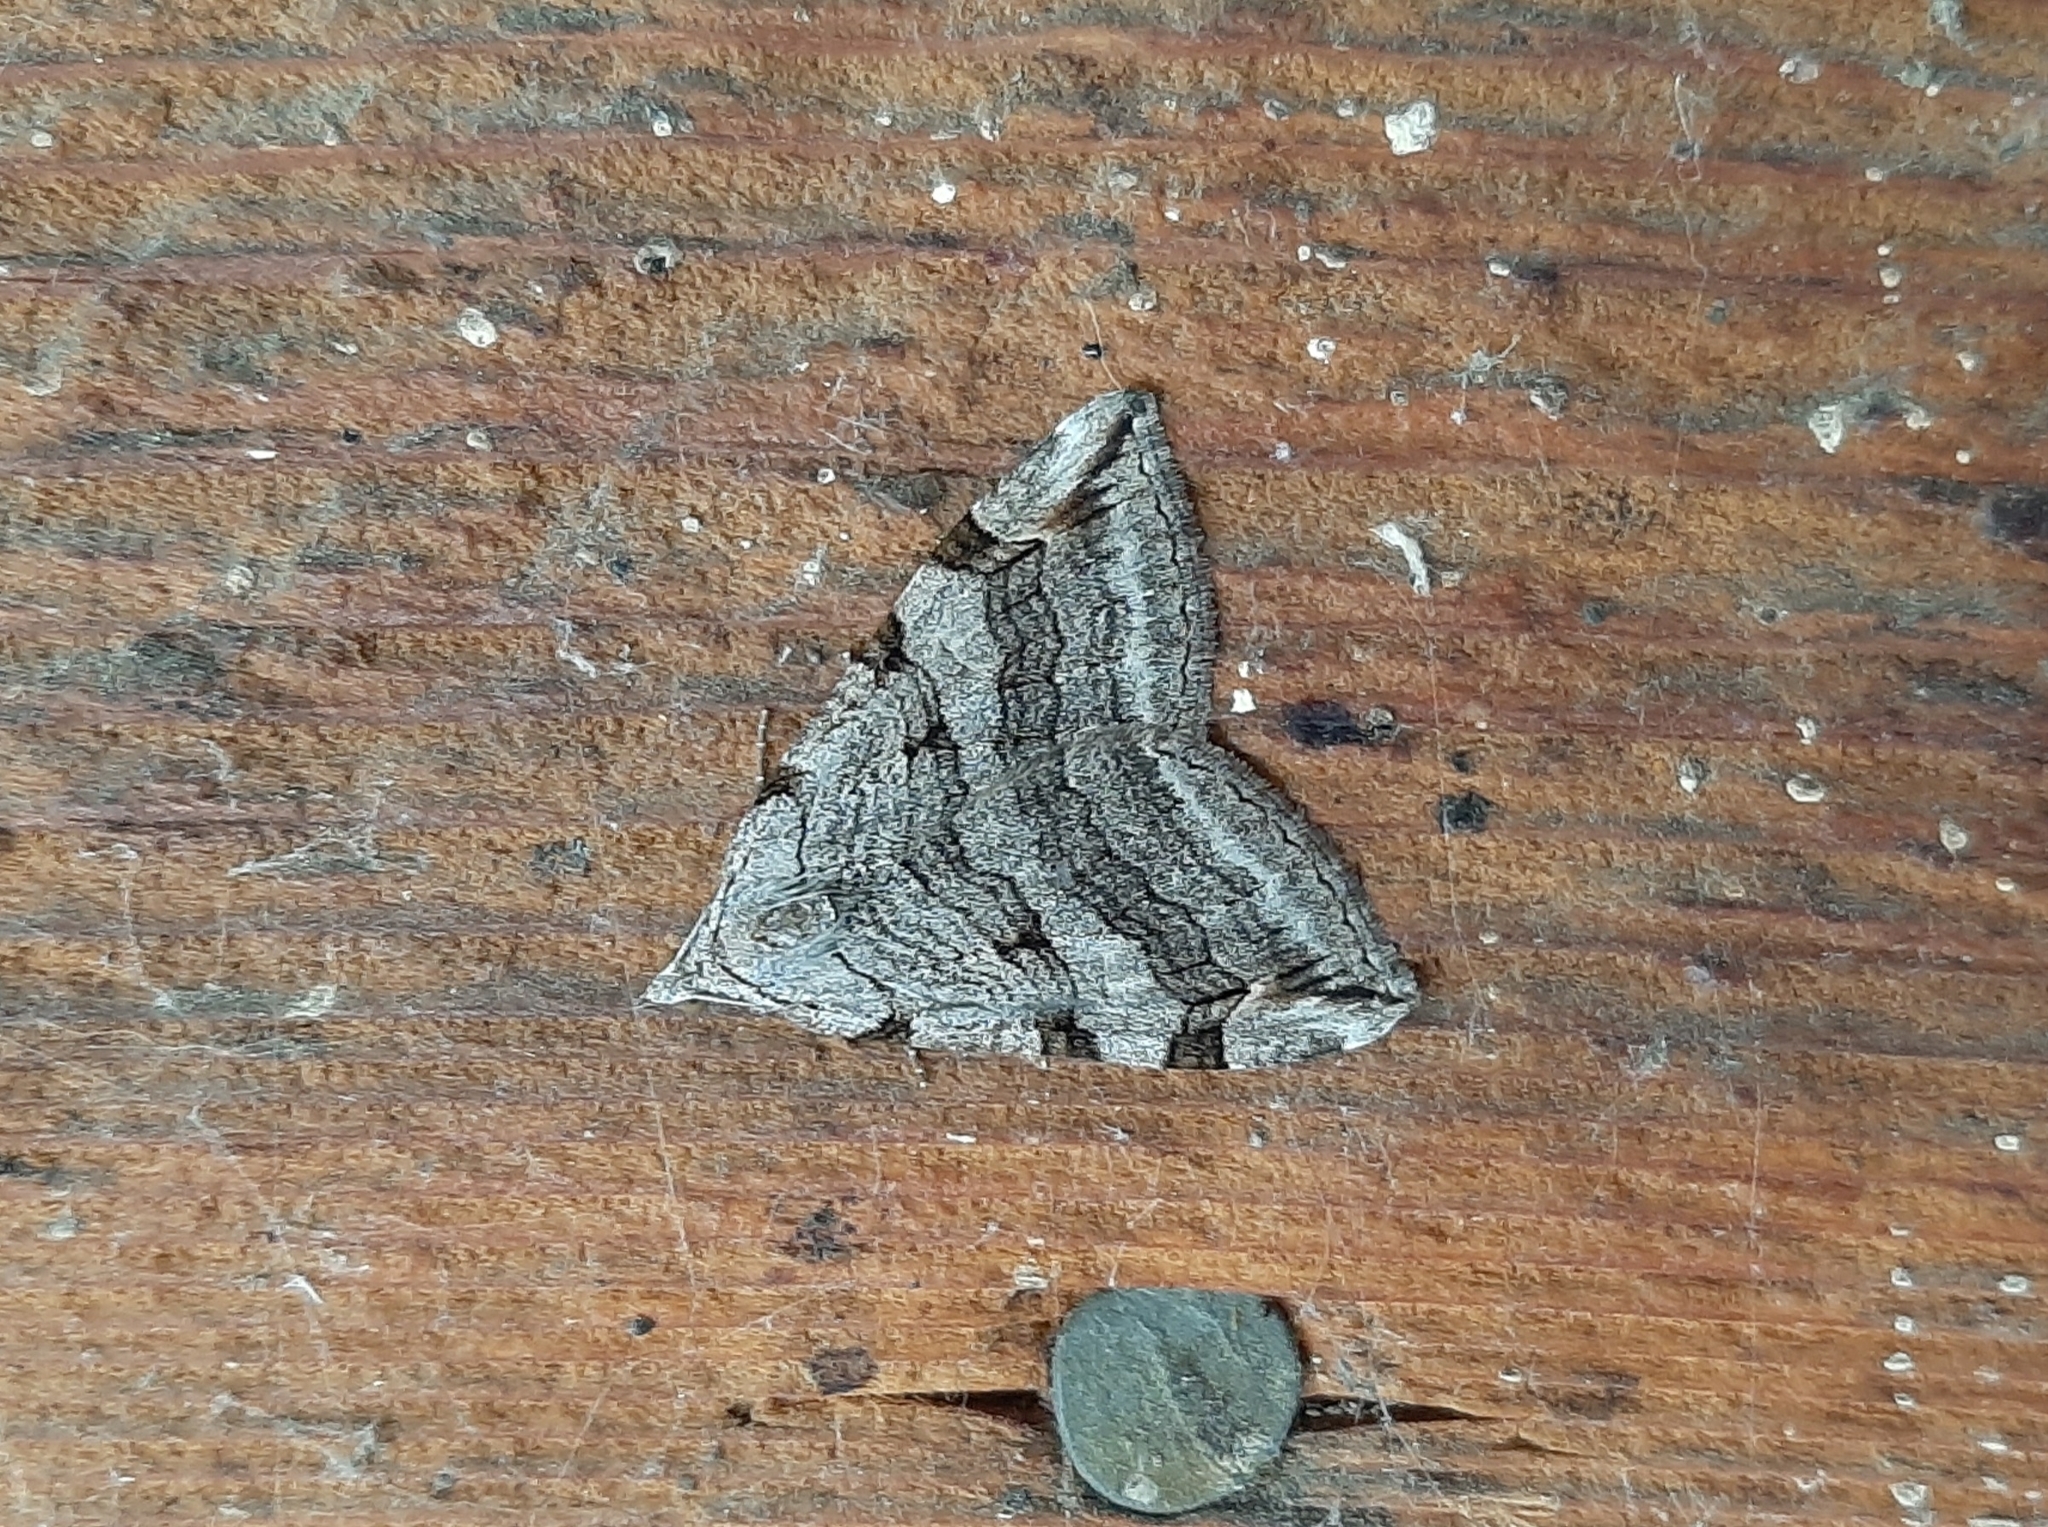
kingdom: Animalia
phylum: Arthropoda
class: Insecta
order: Lepidoptera
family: Geometridae
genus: Aplocera
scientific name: Aplocera plagiata
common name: Treble-bar
